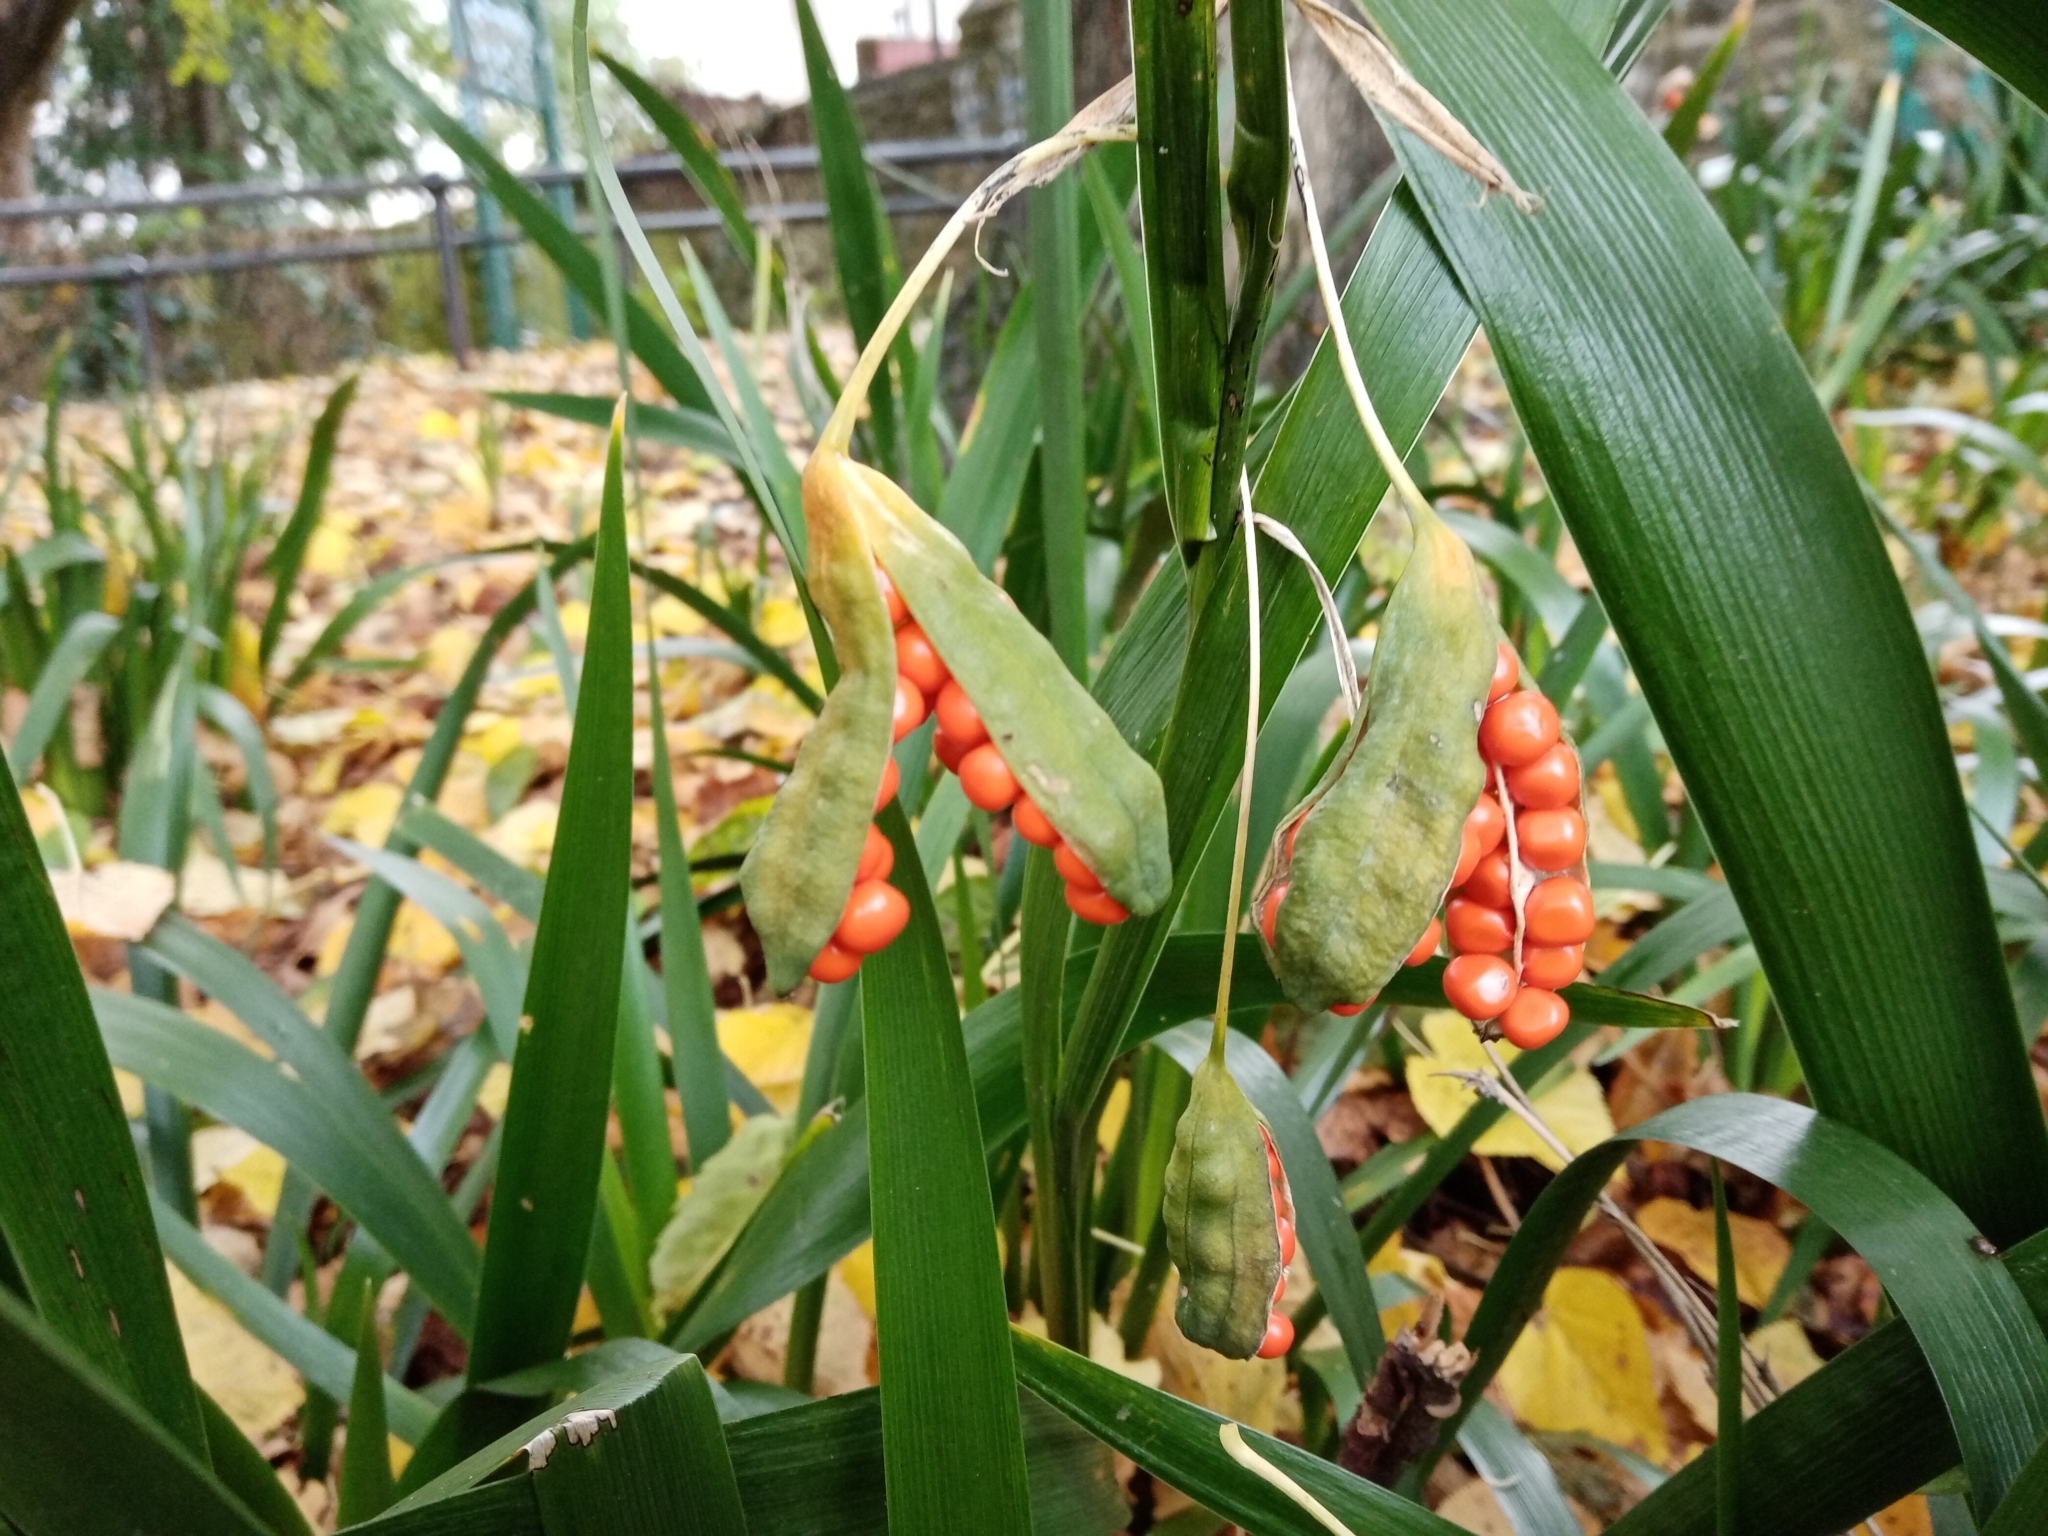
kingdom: Plantae
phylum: Tracheophyta
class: Liliopsida
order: Asparagales
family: Iridaceae
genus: Iris
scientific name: Iris foetidissima
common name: Stinking iris
